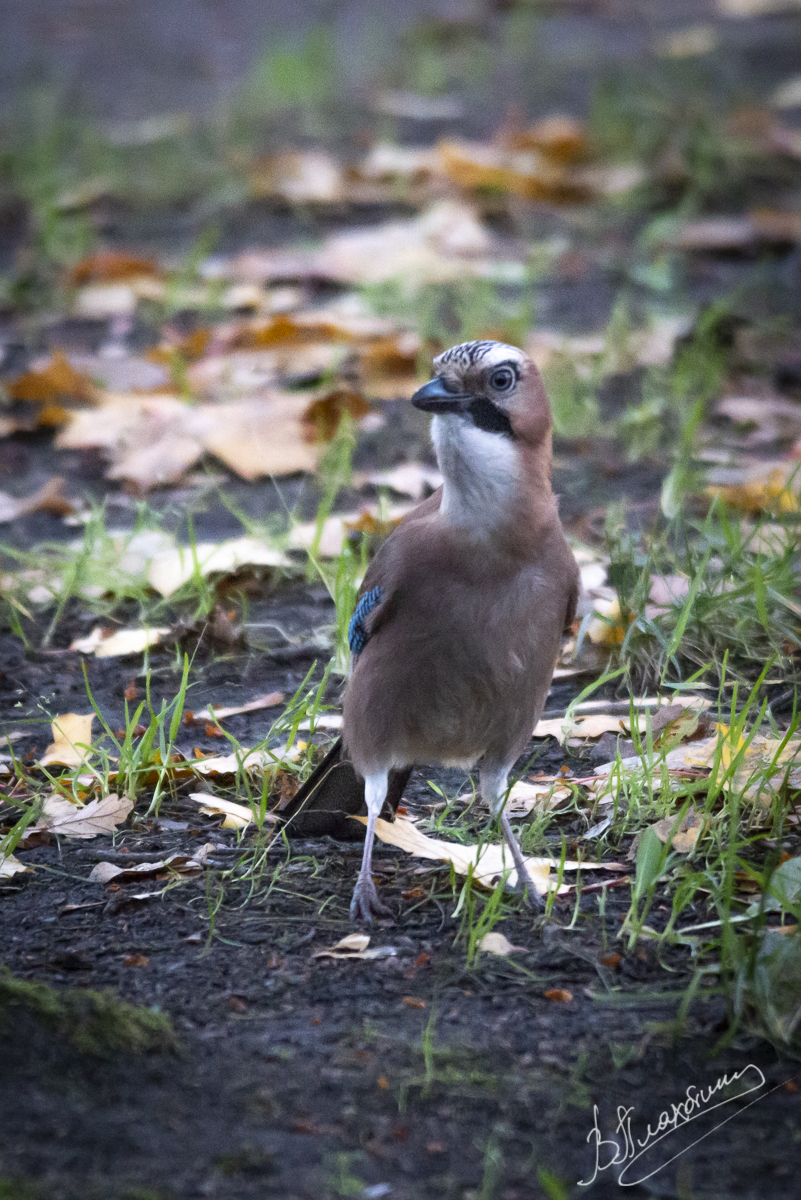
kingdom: Animalia
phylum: Chordata
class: Aves
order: Passeriformes
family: Corvidae
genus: Garrulus
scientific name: Garrulus glandarius
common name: Eurasian jay
